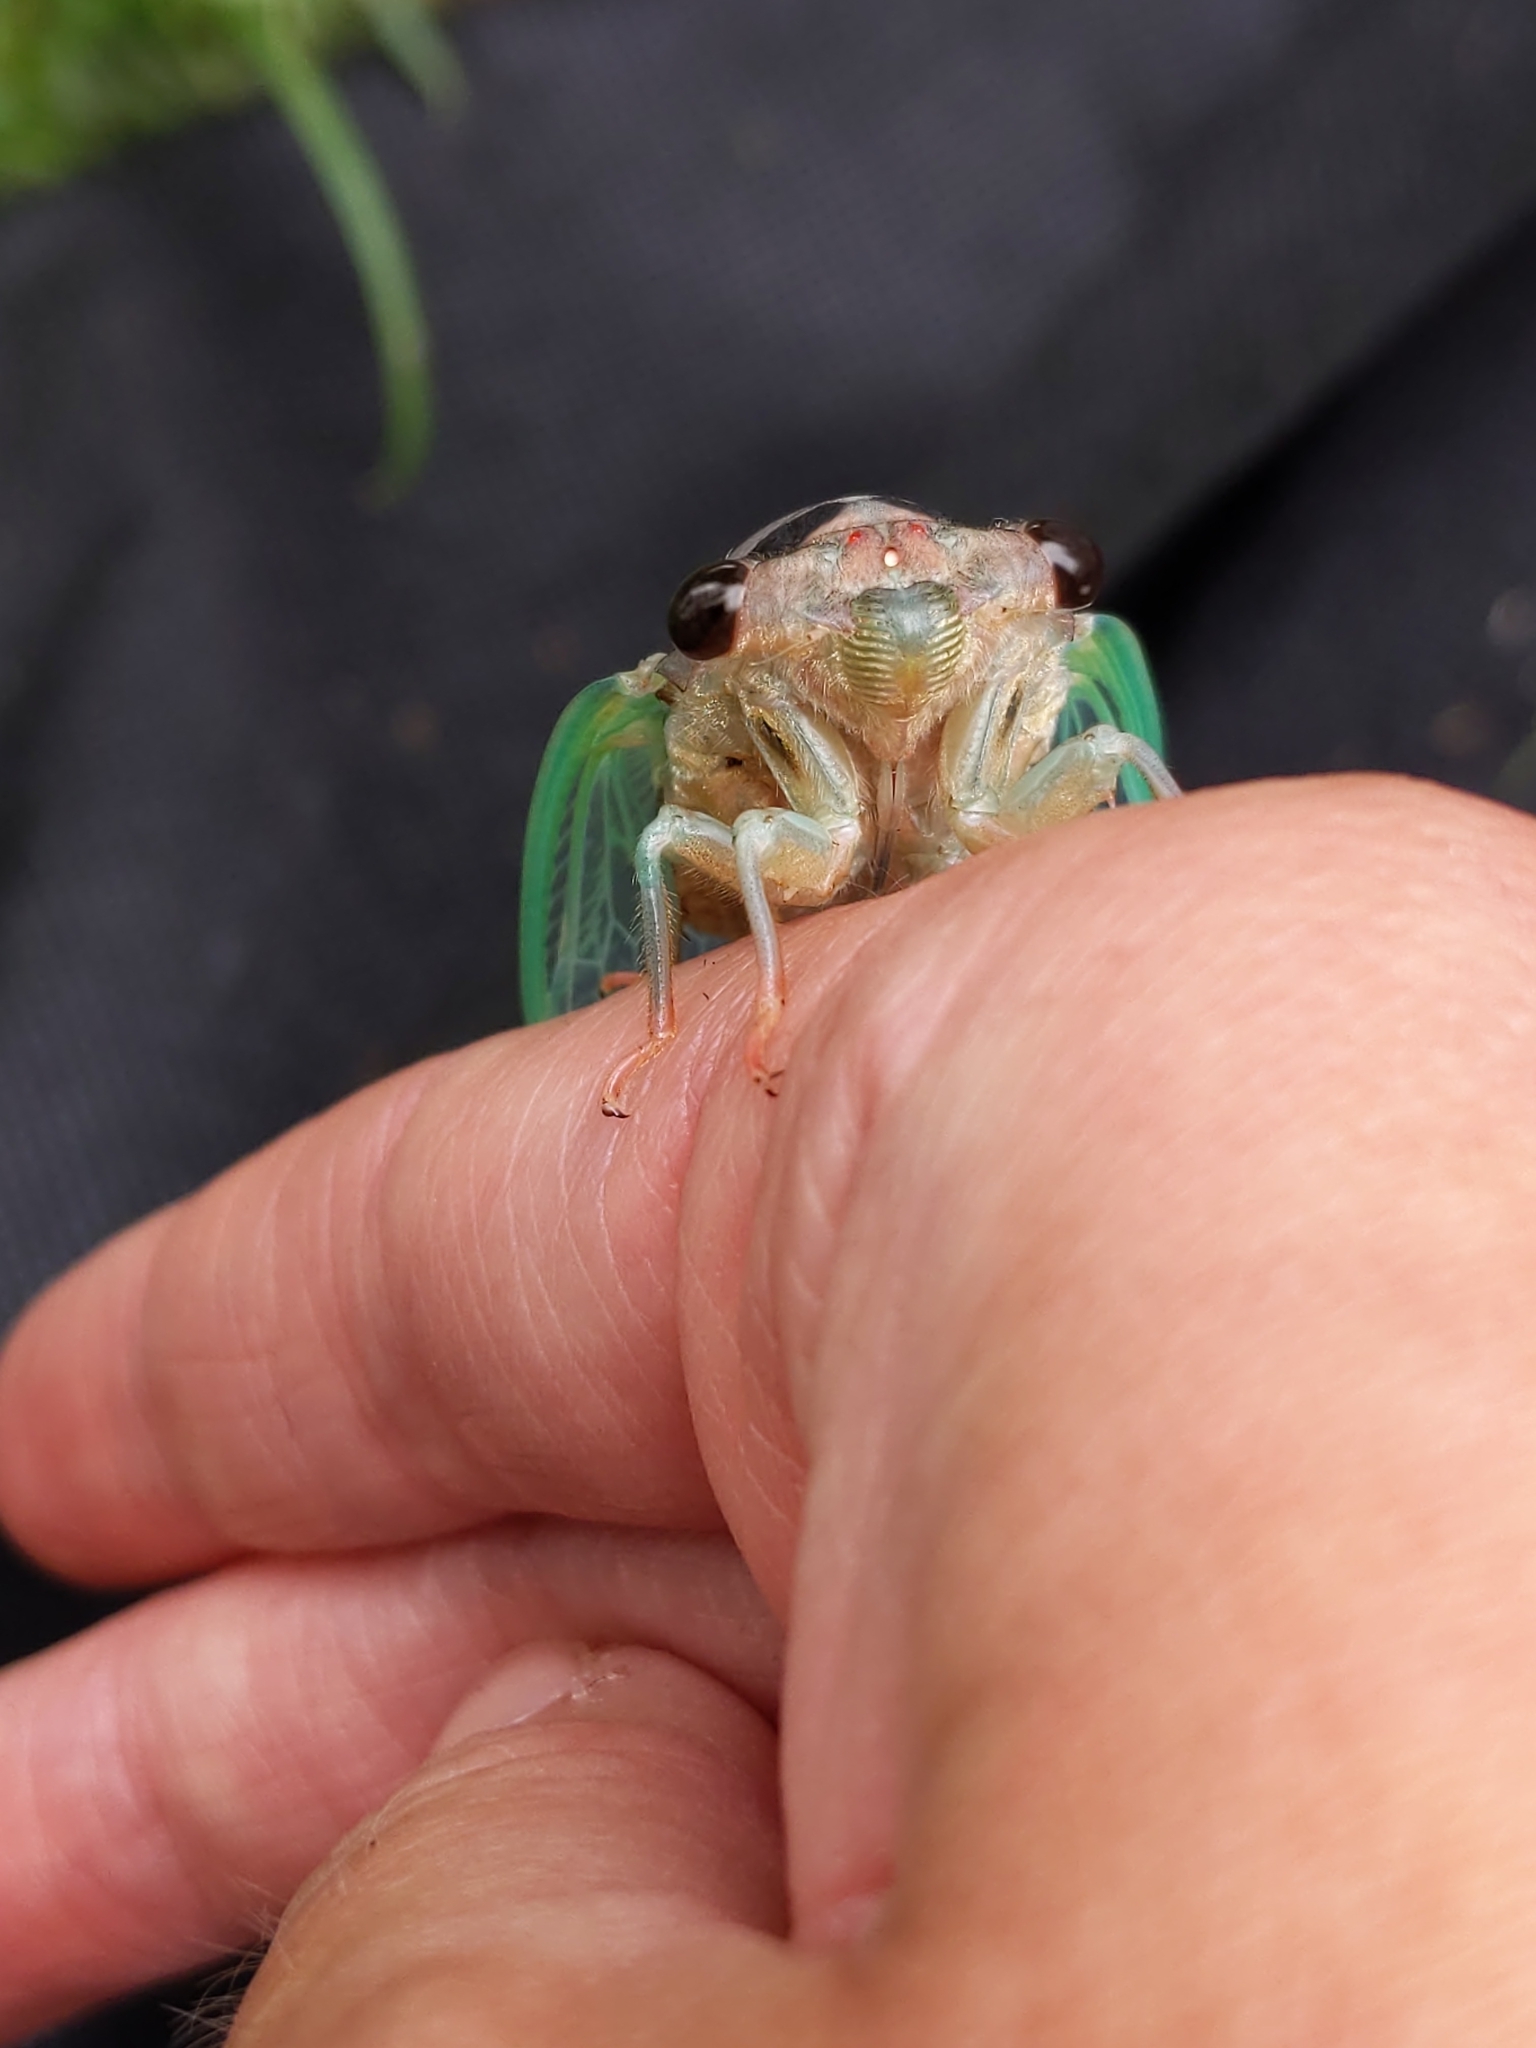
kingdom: Animalia
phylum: Arthropoda
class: Insecta
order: Hemiptera
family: Cicadidae
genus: Neotibicen
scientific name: Neotibicen lyricen
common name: Lyric cicada
